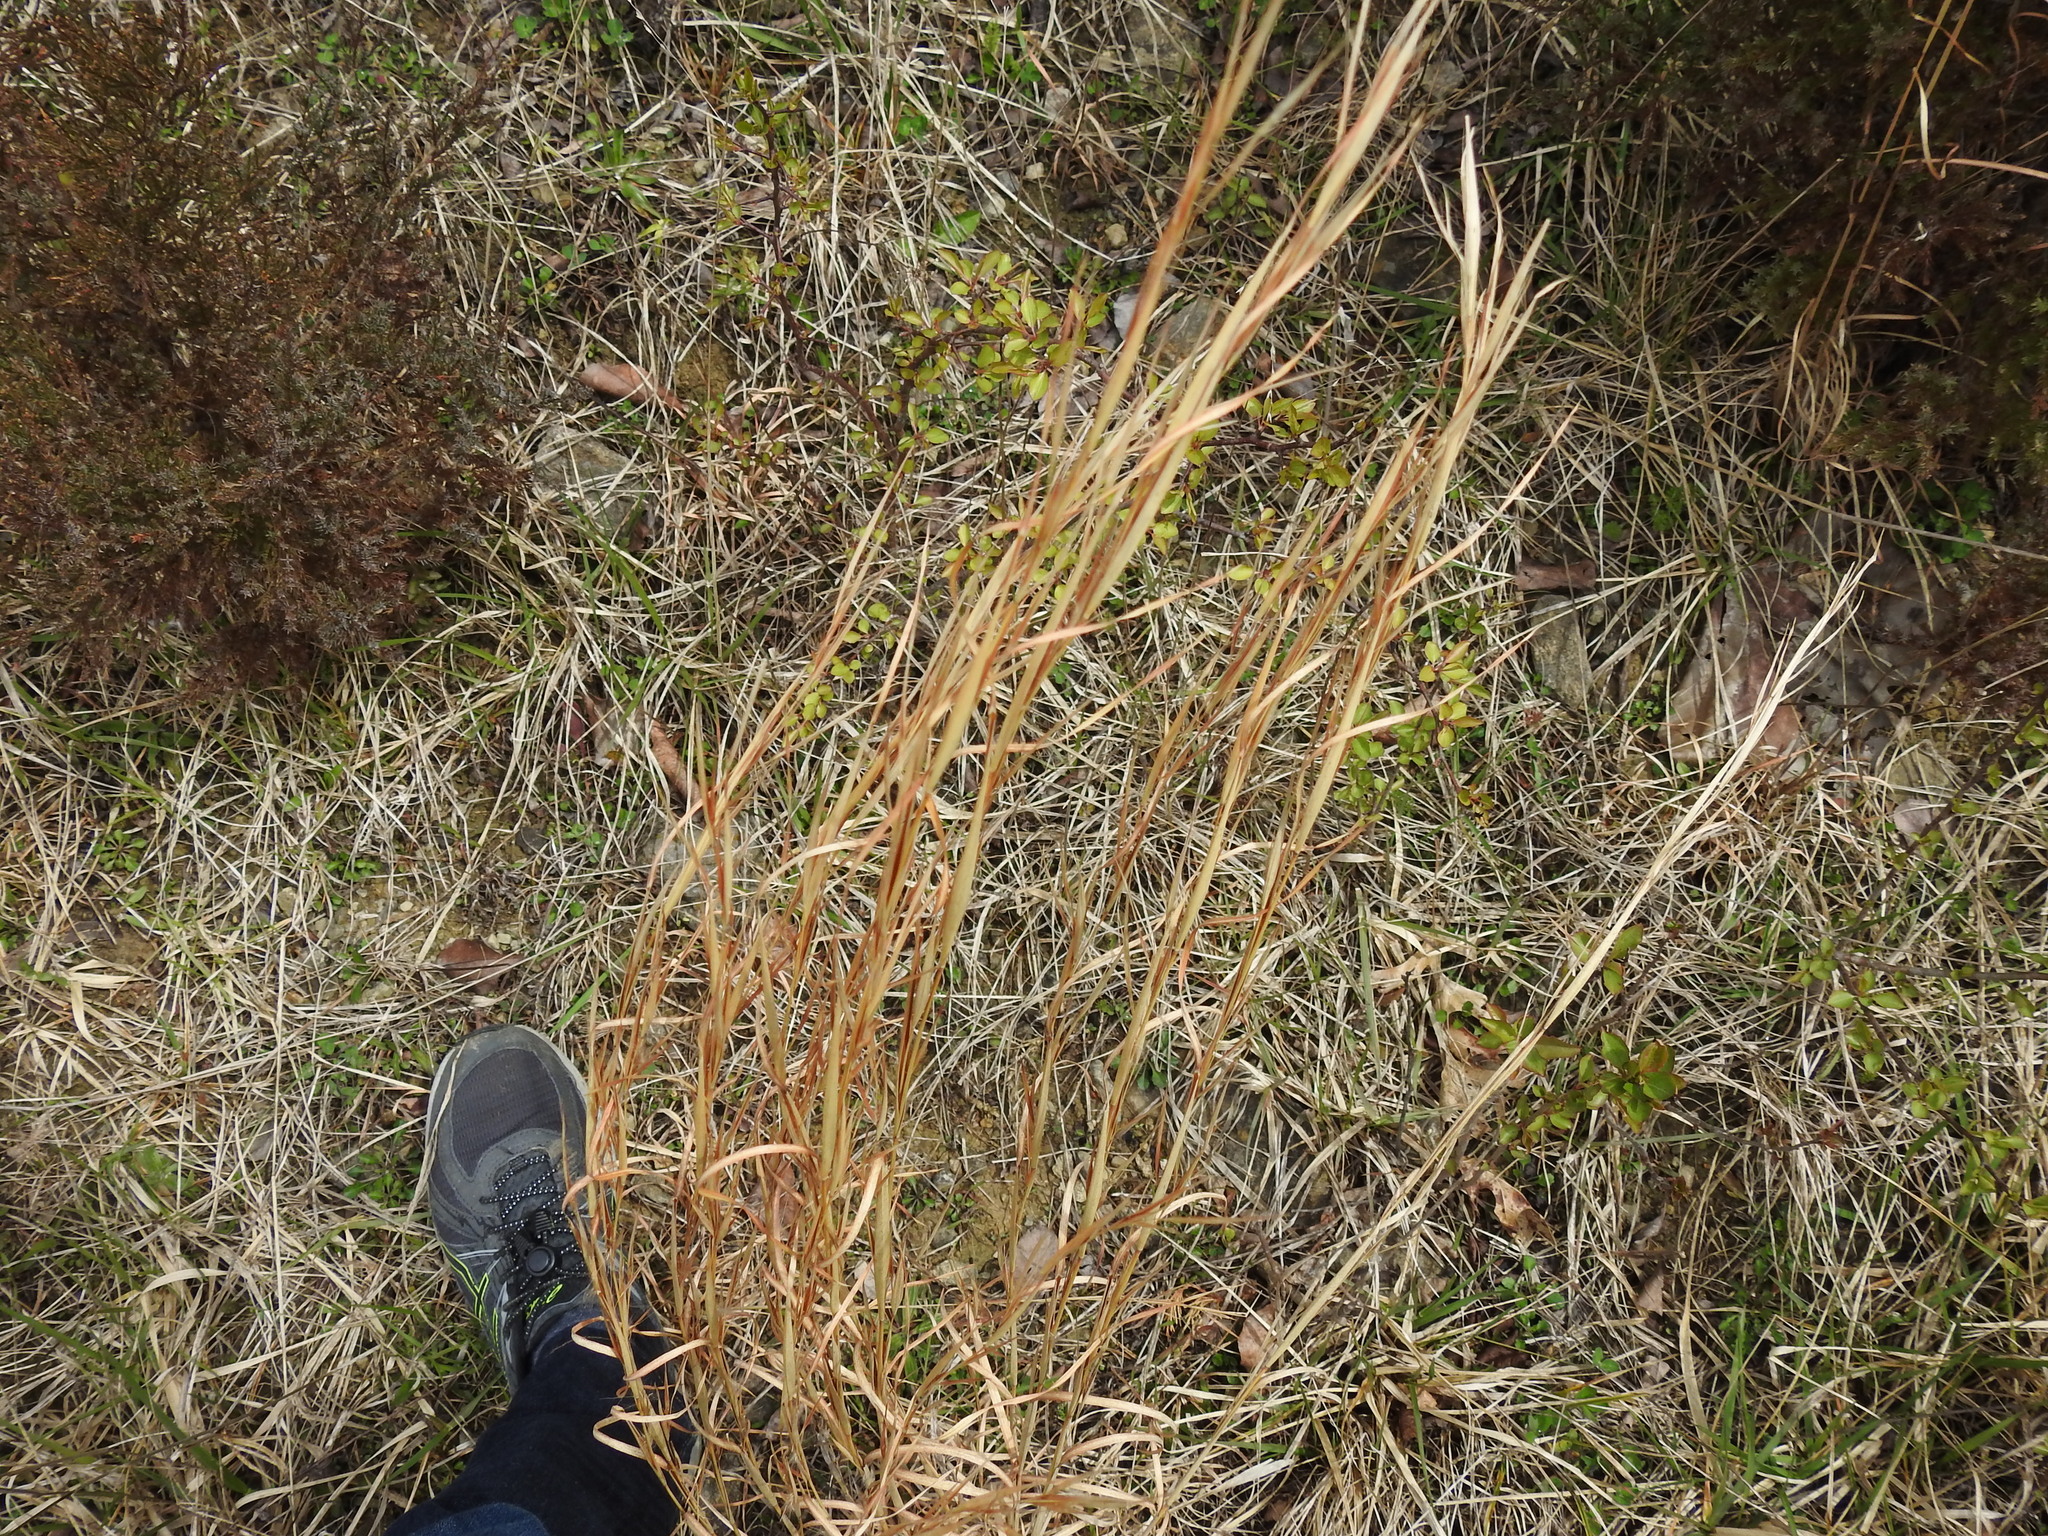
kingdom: Plantae
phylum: Tracheophyta
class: Liliopsida
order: Poales
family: Poaceae
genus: Andropogon
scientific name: Andropogon virginicus
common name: Broomsedge bluestem
